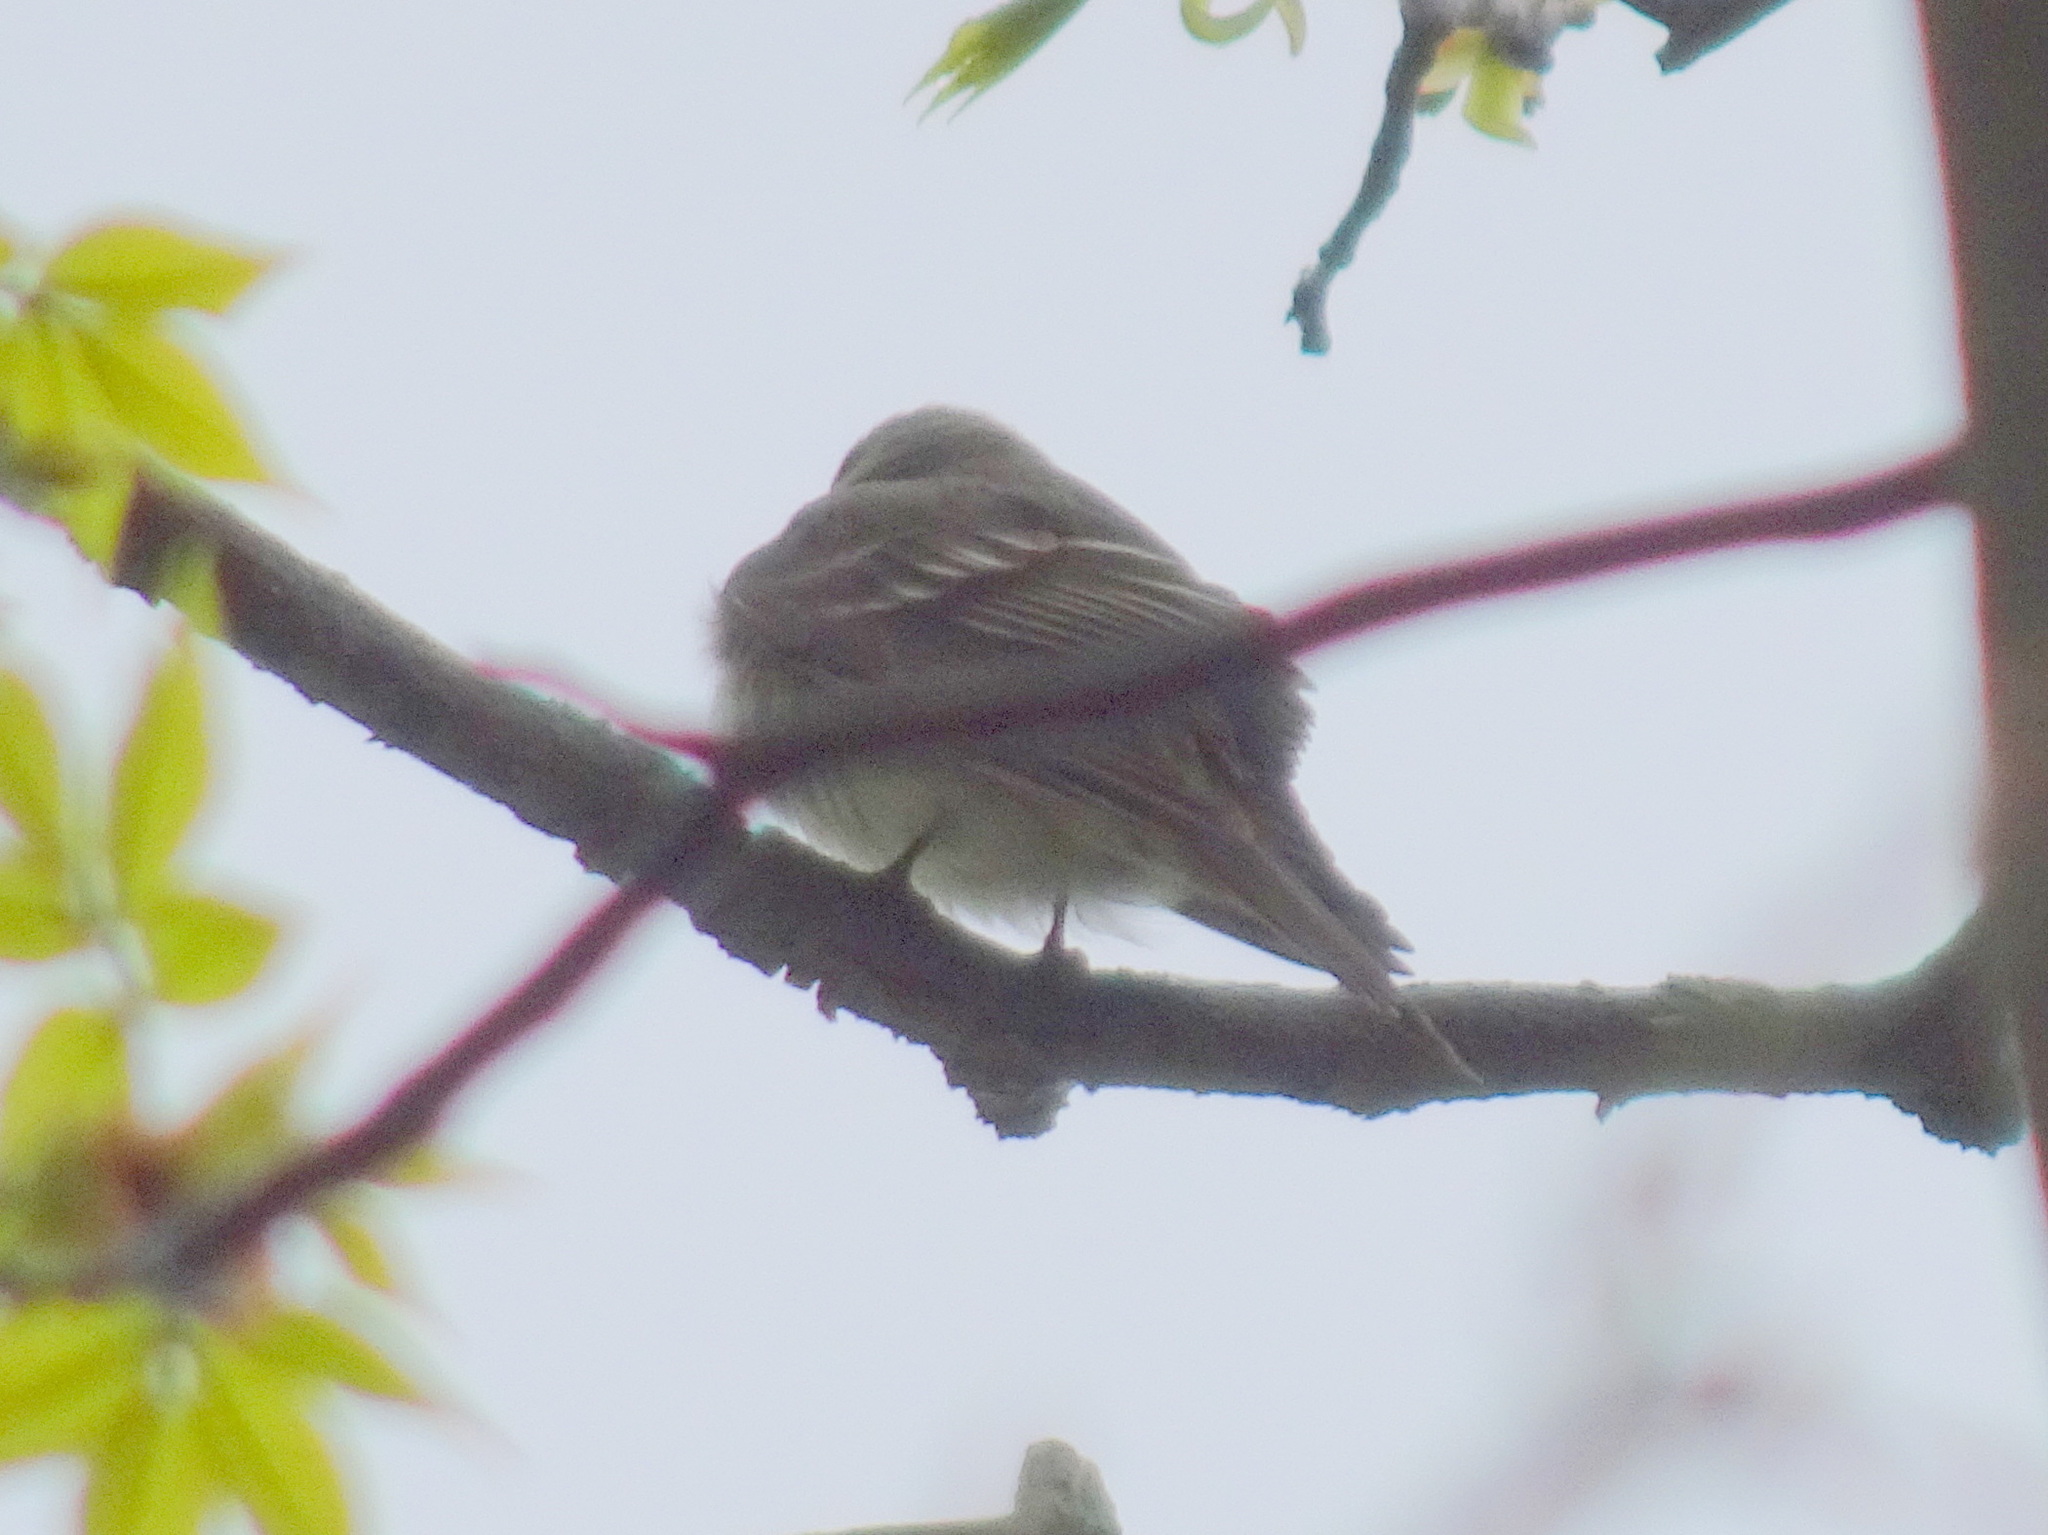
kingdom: Animalia
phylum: Chordata
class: Aves
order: Passeriformes
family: Tyrannidae
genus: Contopus
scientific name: Contopus virens
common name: Eastern wood-pewee
